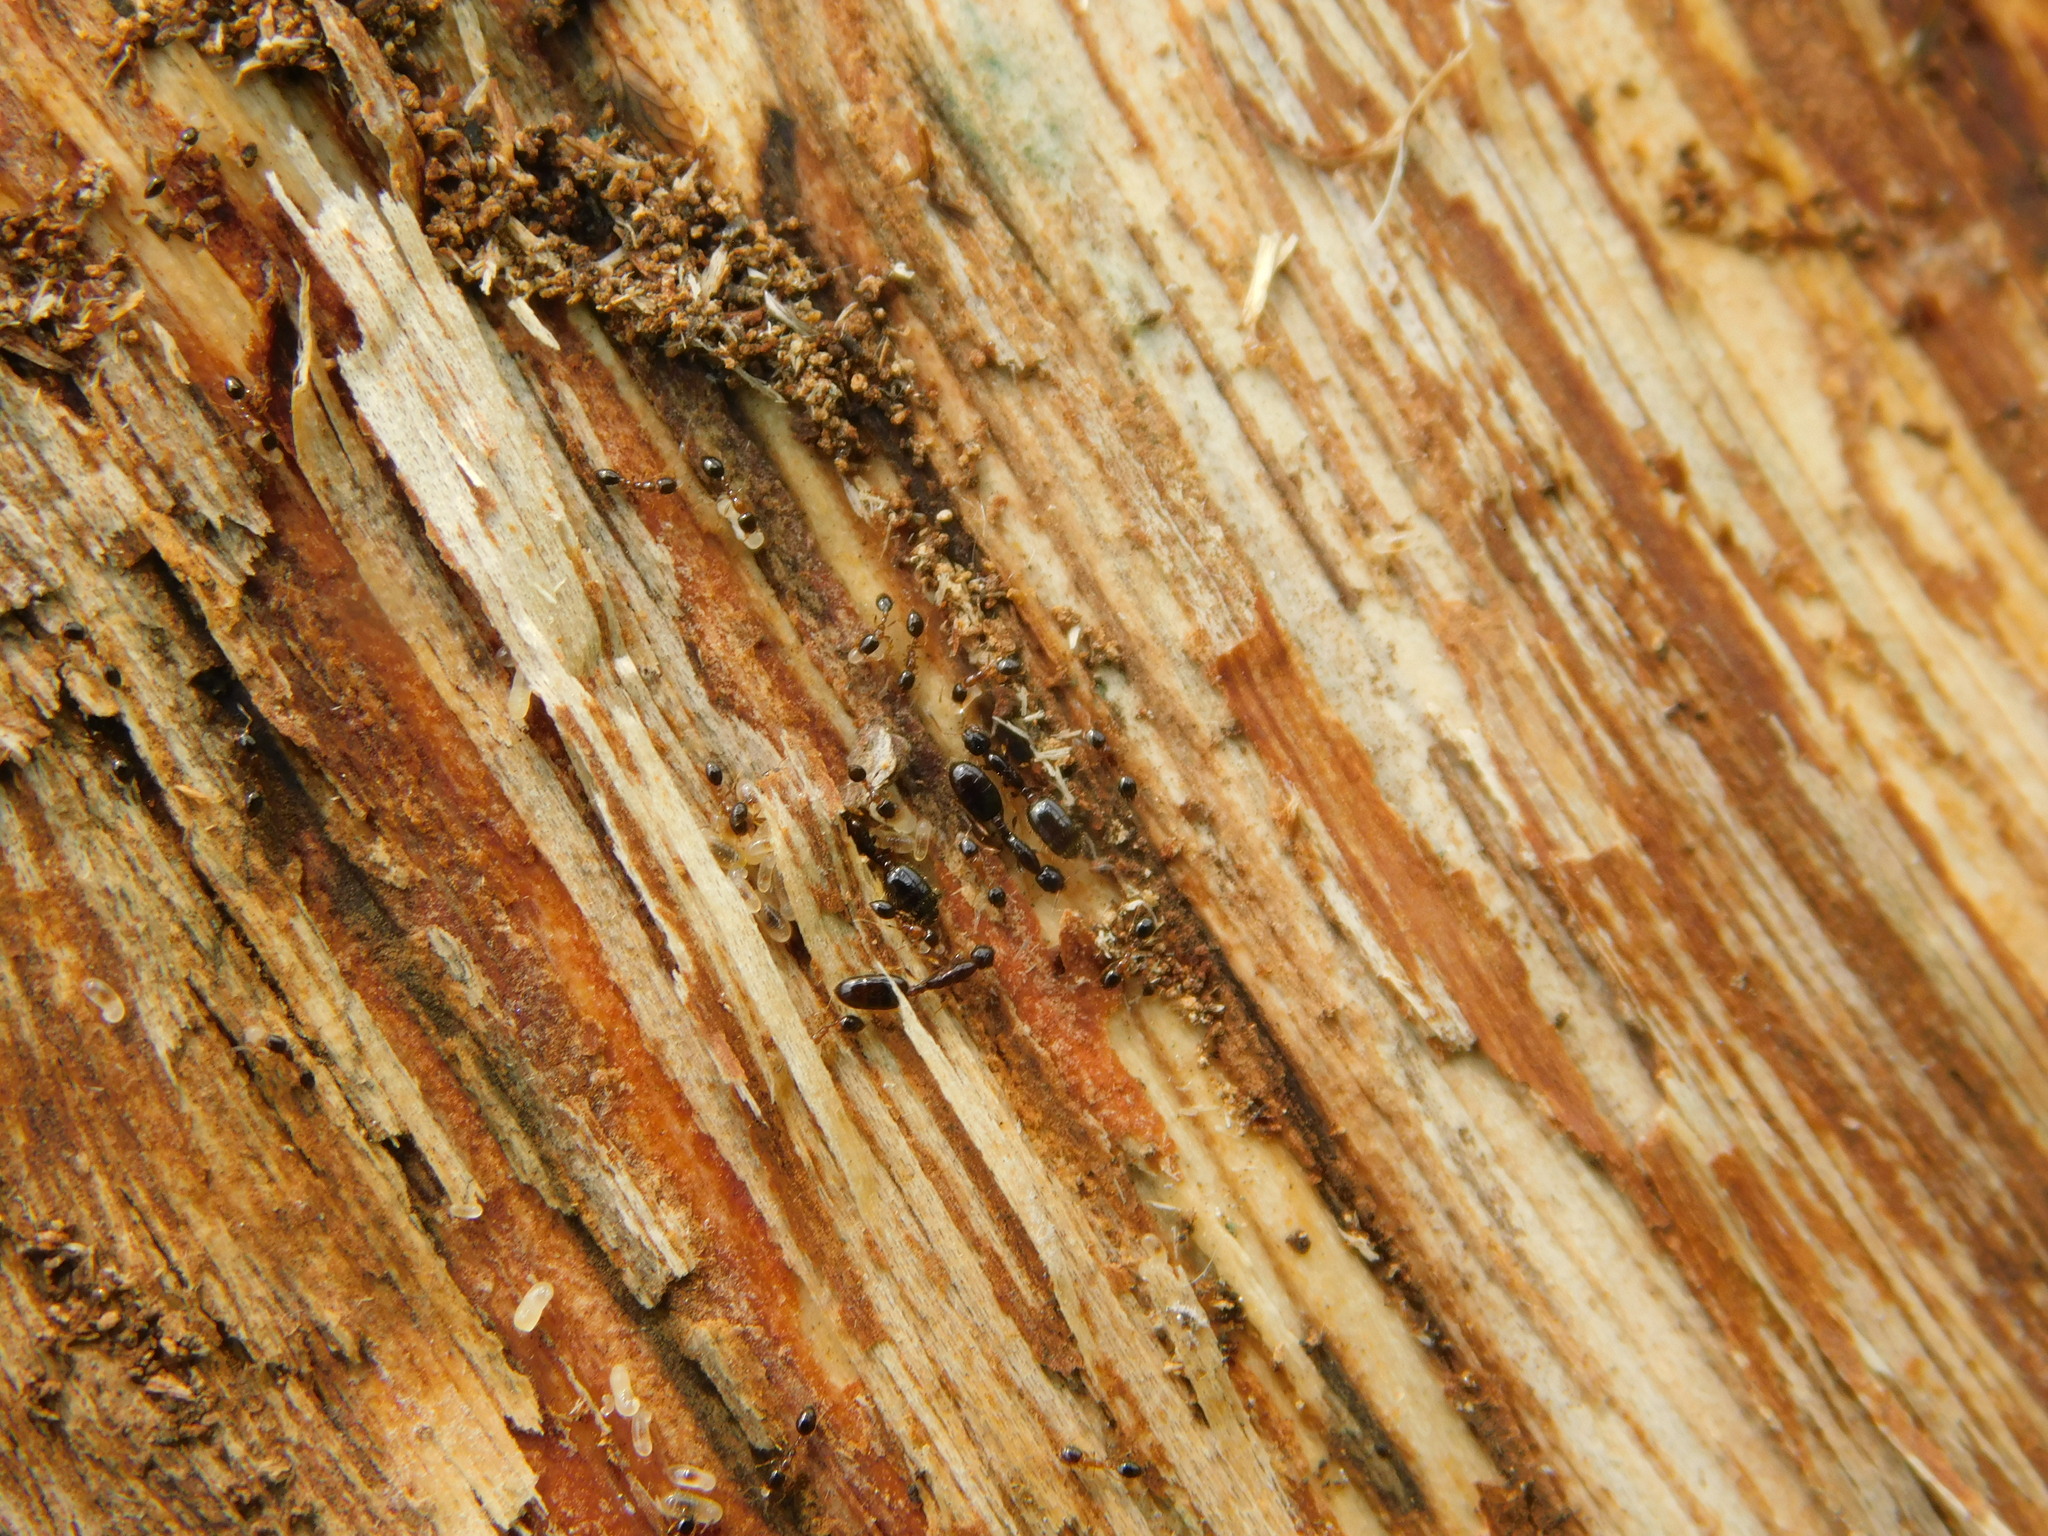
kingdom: Animalia
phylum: Arthropoda
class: Insecta
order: Hymenoptera
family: Formicidae
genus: Monomorium
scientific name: Monomorium floricola
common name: Bicolored trailing ant
